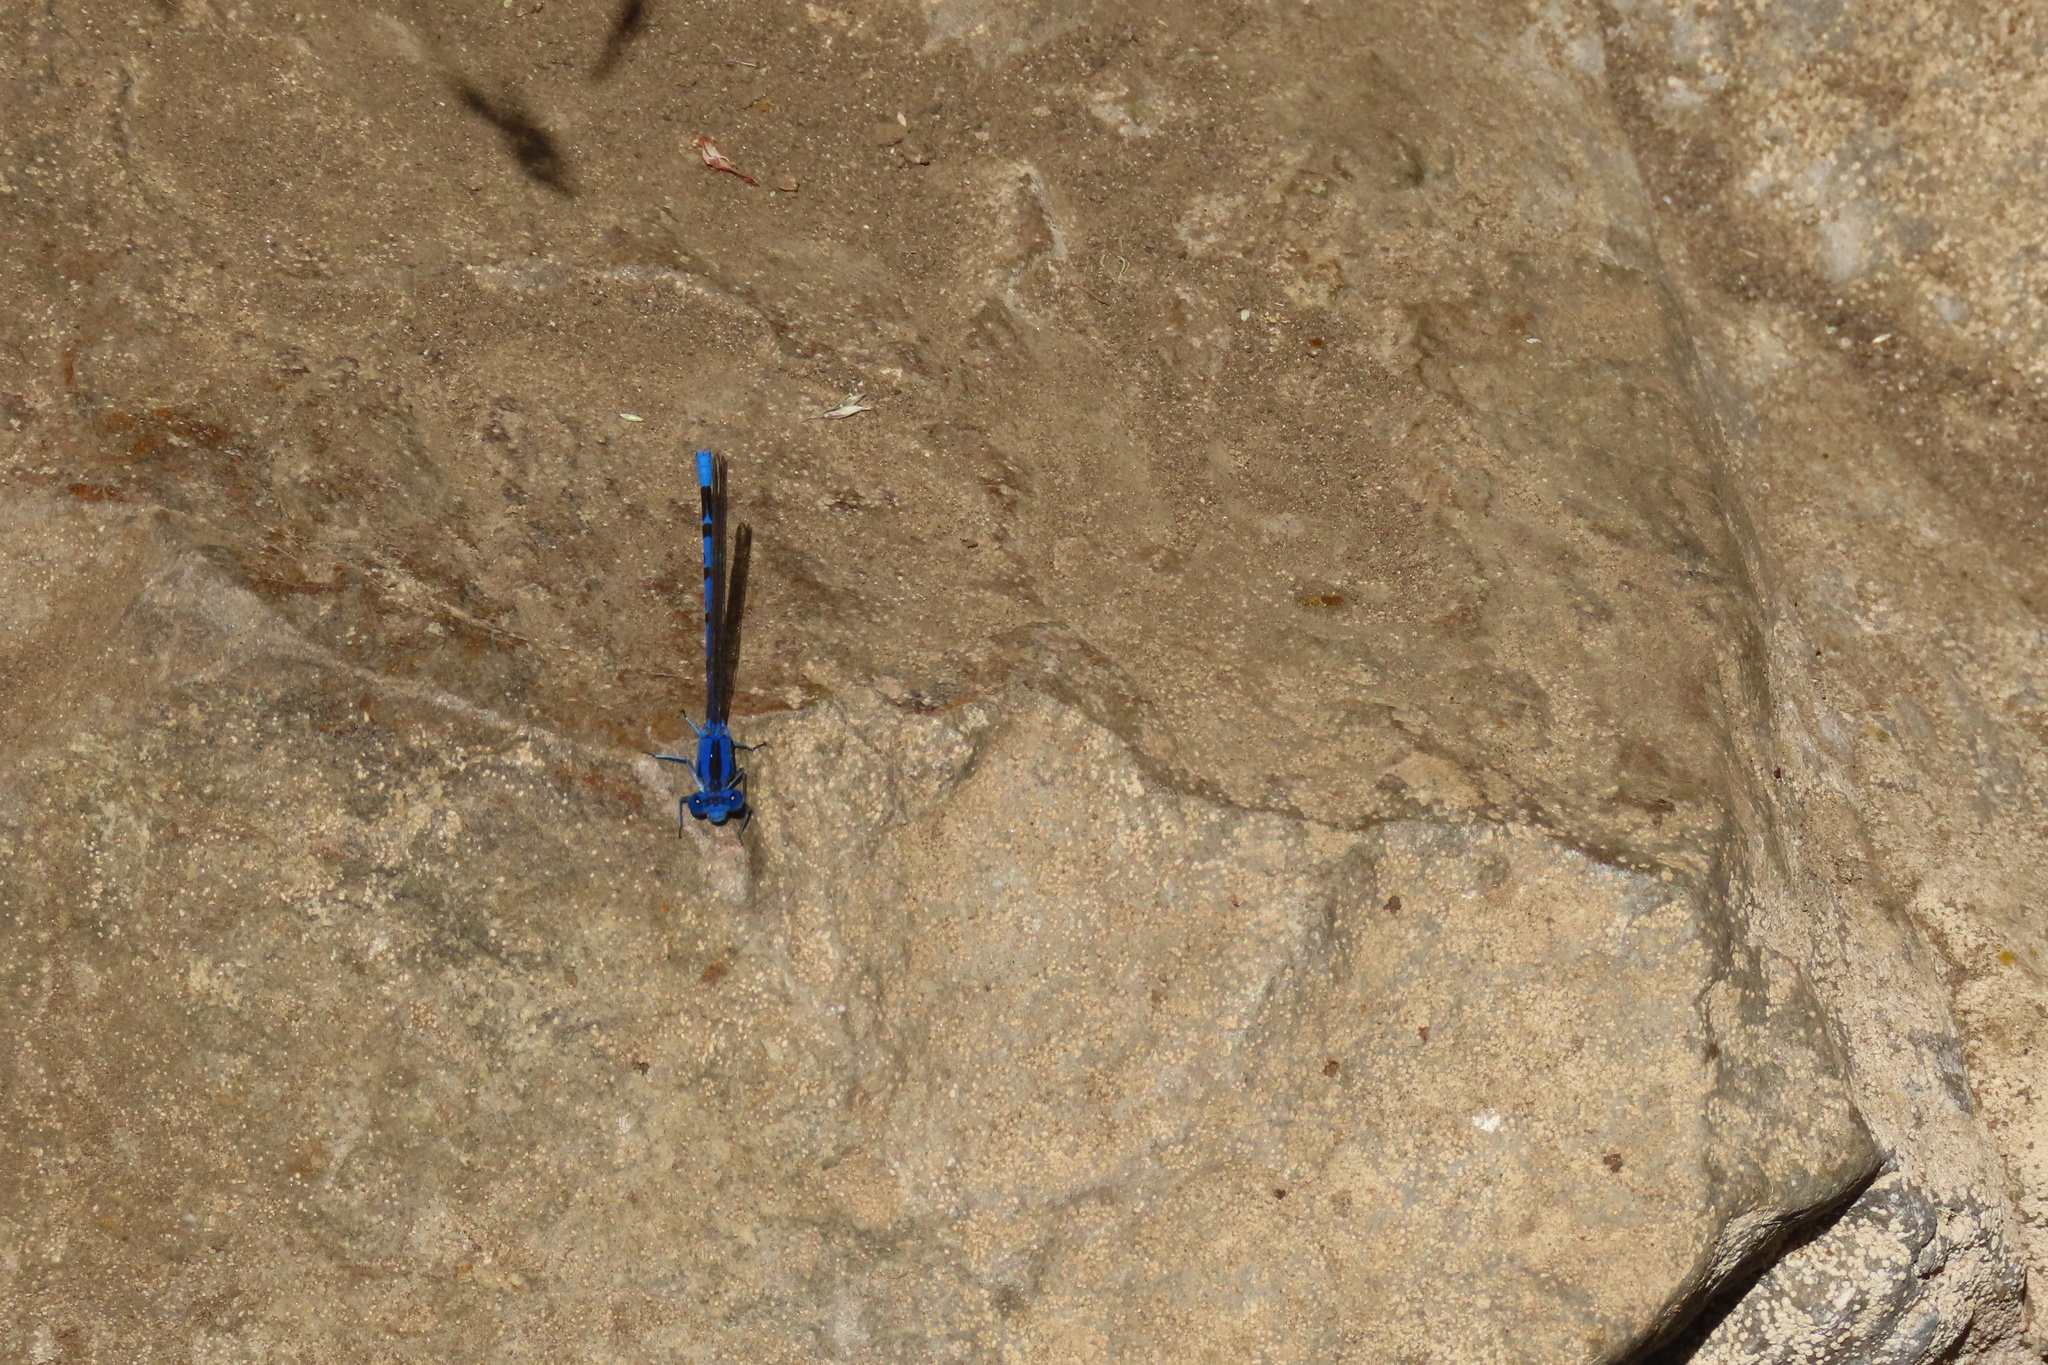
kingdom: Animalia
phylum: Arthropoda
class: Insecta
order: Odonata
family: Coenagrionidae
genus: Argia
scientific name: Argia vivida
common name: Vivid dancer
